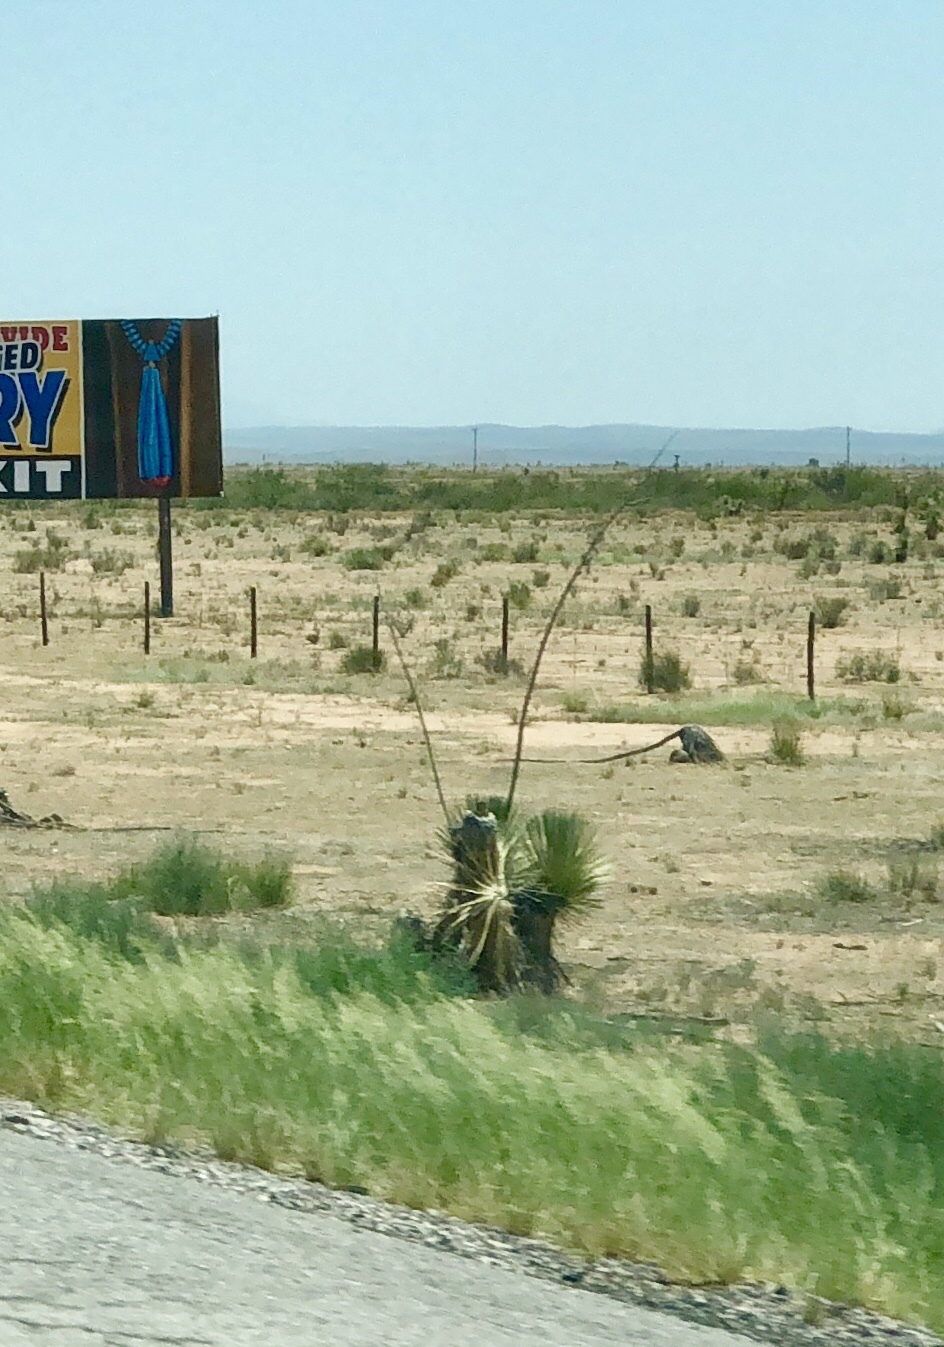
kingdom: Plantae
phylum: Tracheophyta
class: Liliopsida
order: Asparagales
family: Asparagaceae
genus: Yucca
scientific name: Yucca elata
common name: Palmella
